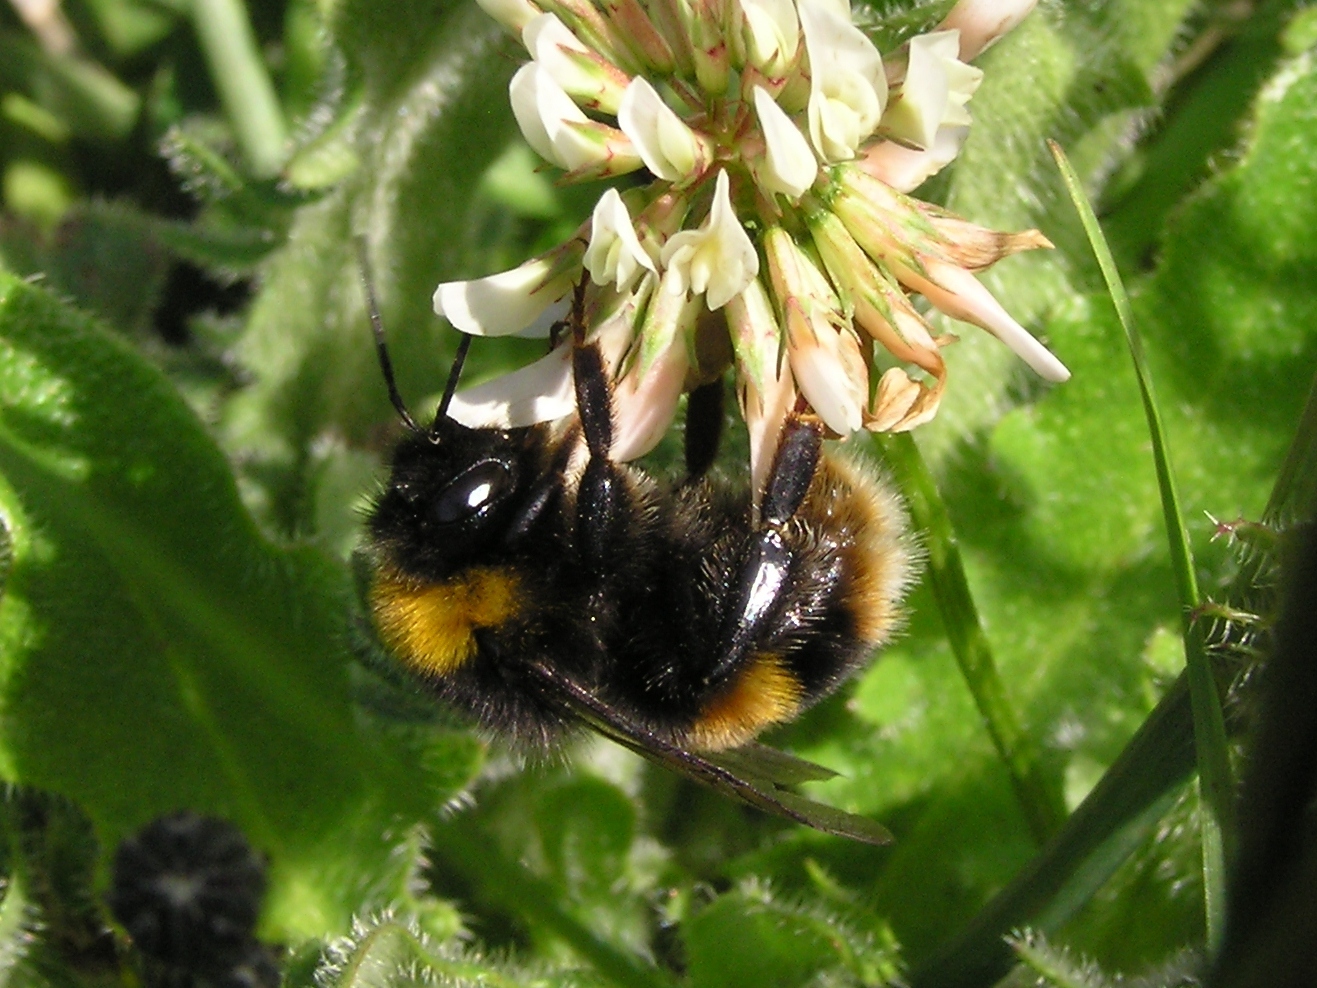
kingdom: Animalia
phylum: Arthropoda
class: Insecta
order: Hymenoptera
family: Apidae
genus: Bombus
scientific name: Bombus terrestris
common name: Buff-tailed bumblebee
